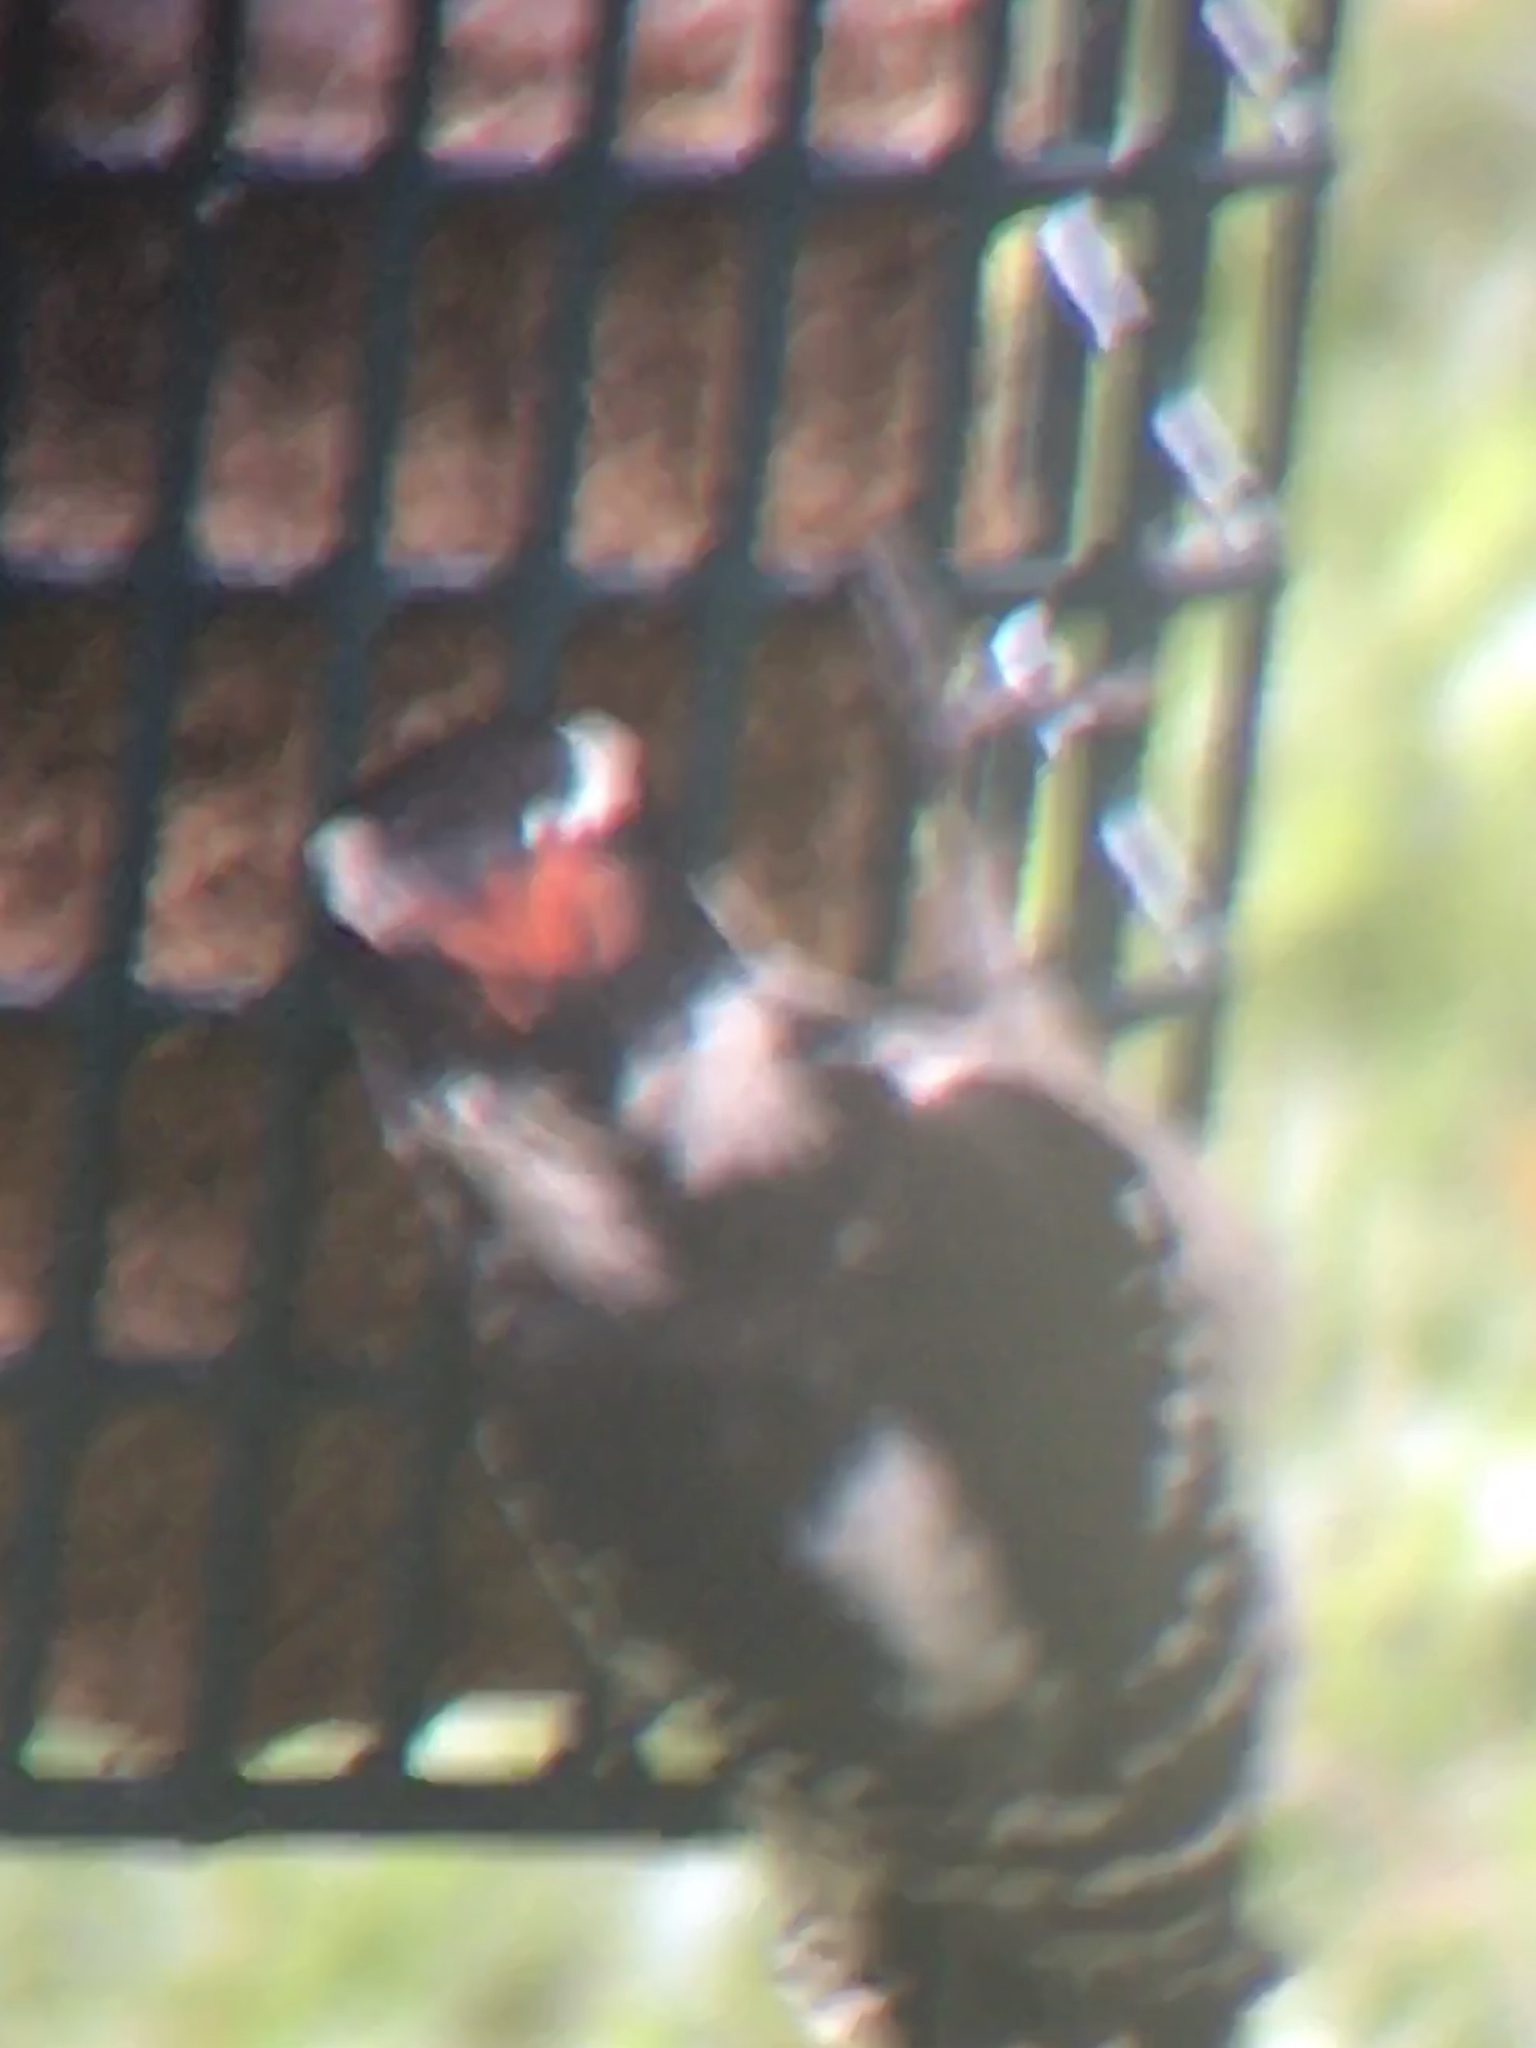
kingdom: Animalia
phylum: Chordata
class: Aves
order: Piciformes
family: Picidae
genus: Dryobates
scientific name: Dryobates pubescens
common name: Downy woodpecker
